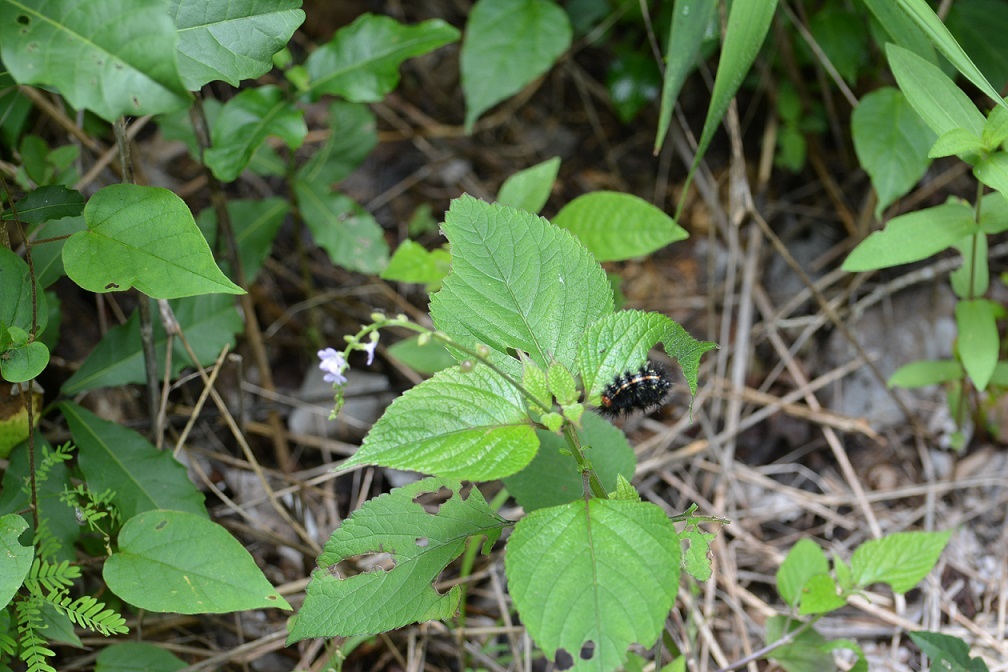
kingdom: Plantae
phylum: Tracheophyta
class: Magnoliopsida
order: Lamiales
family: Verbenaceae
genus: Priva
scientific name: Priva lappulacea
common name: Fasten-'pon-coat
